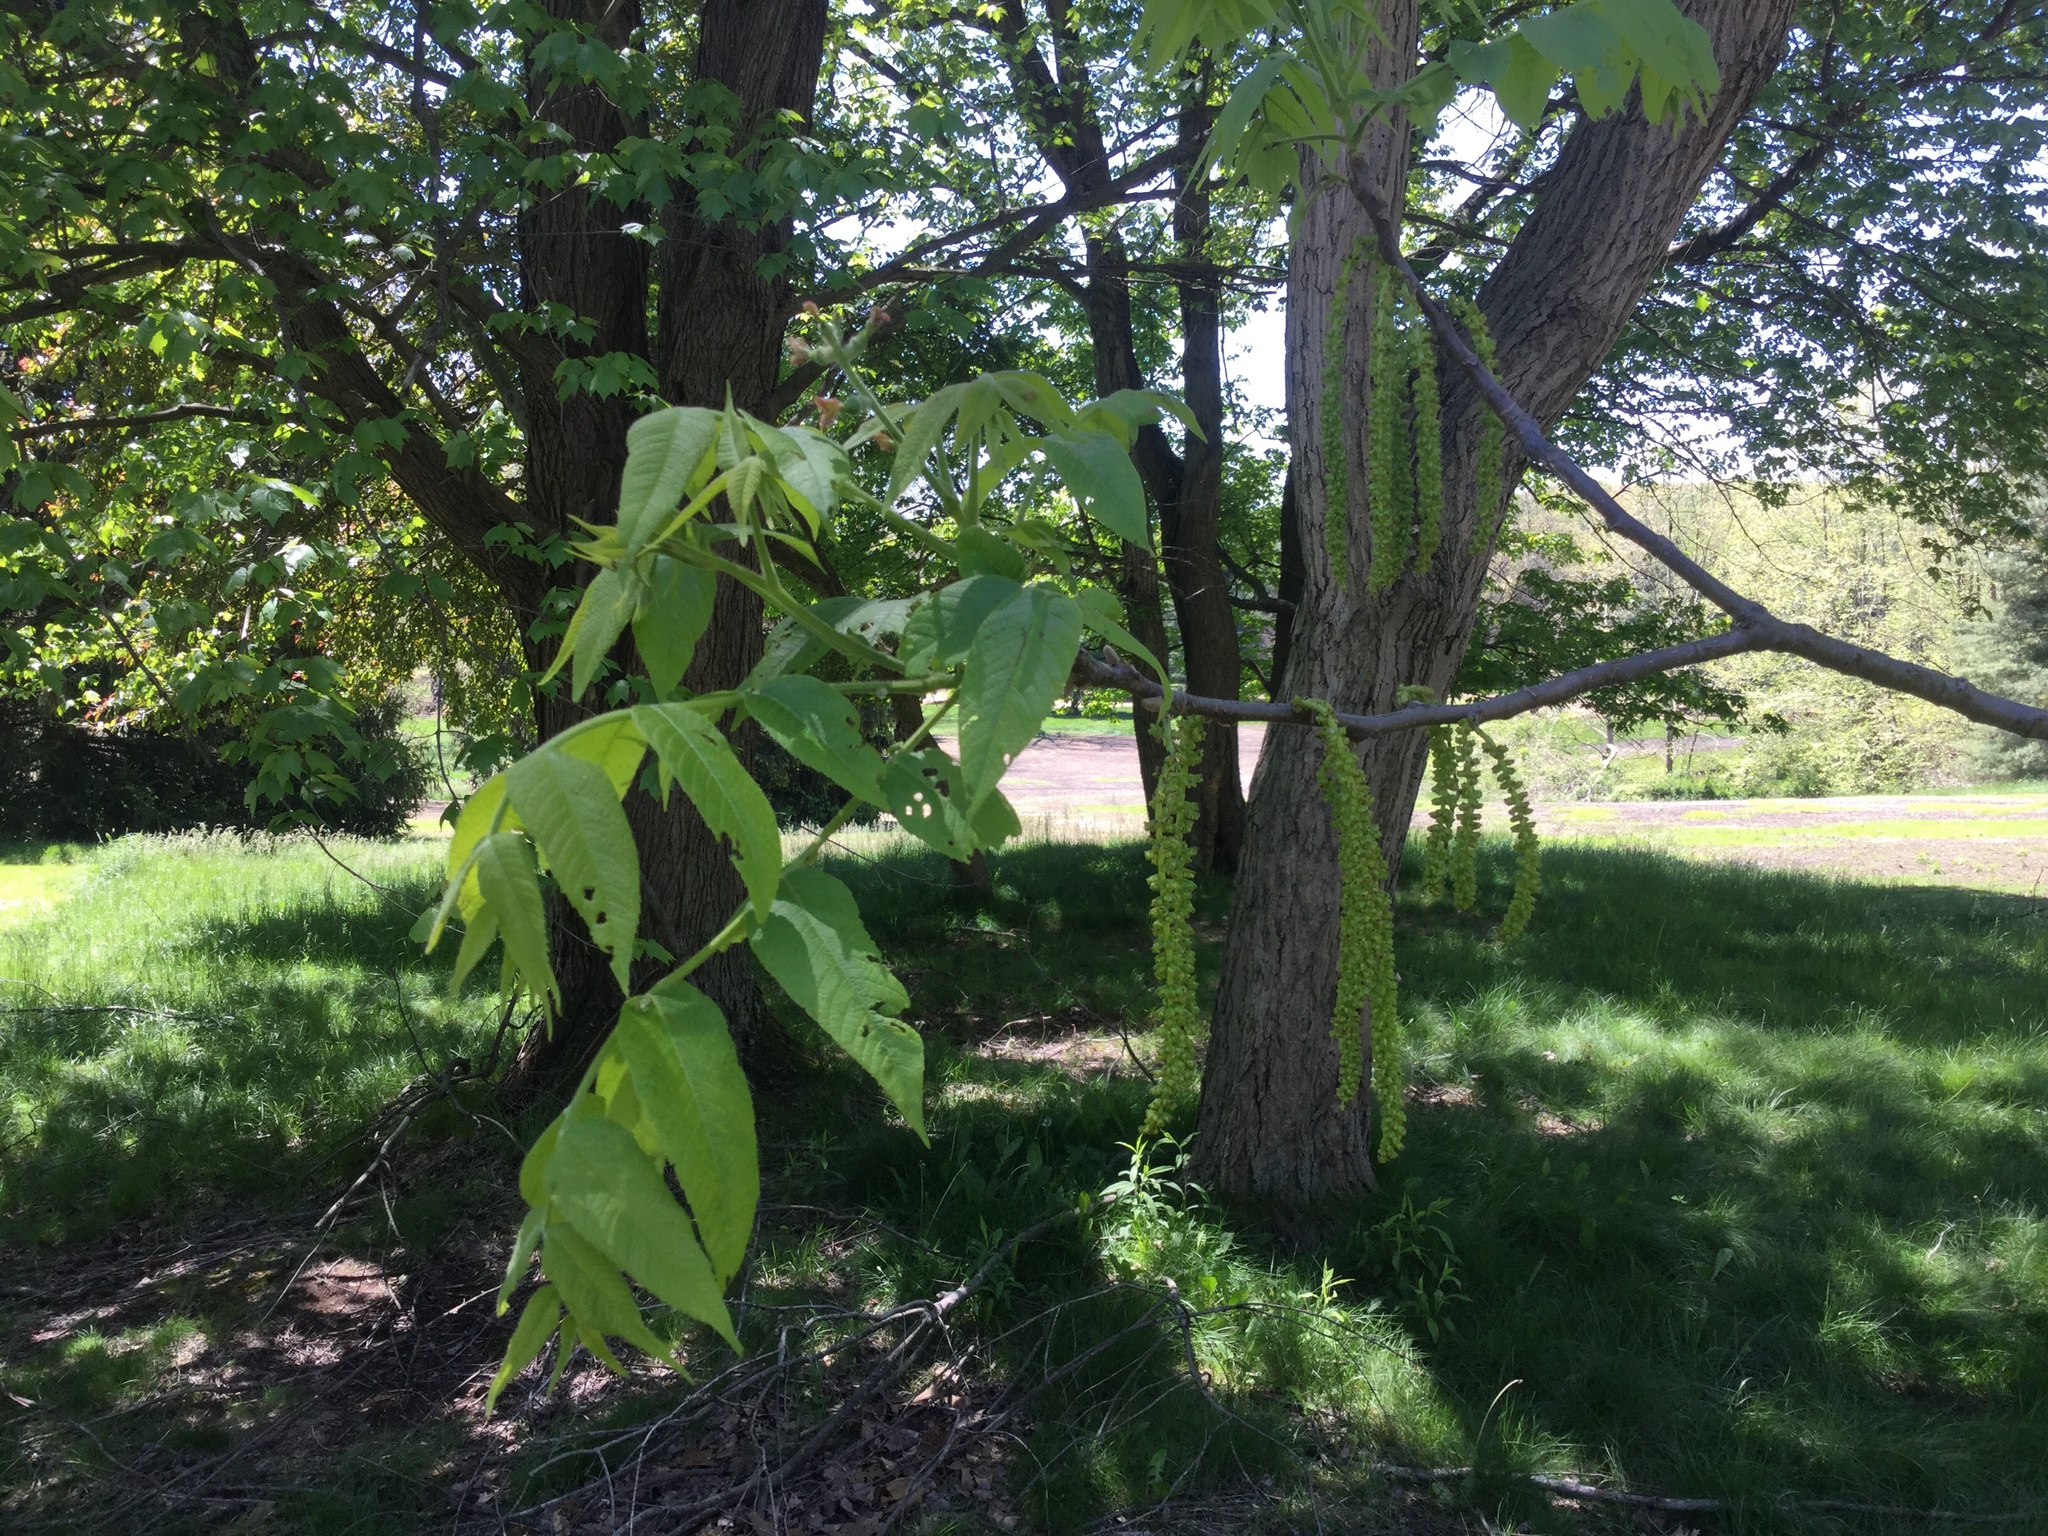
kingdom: Plantae
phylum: Tracheophyta
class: Magnoliopsida
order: Fagales
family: Juglandaceae
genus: Juglans
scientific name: Juglans cinerea
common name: Butternut
